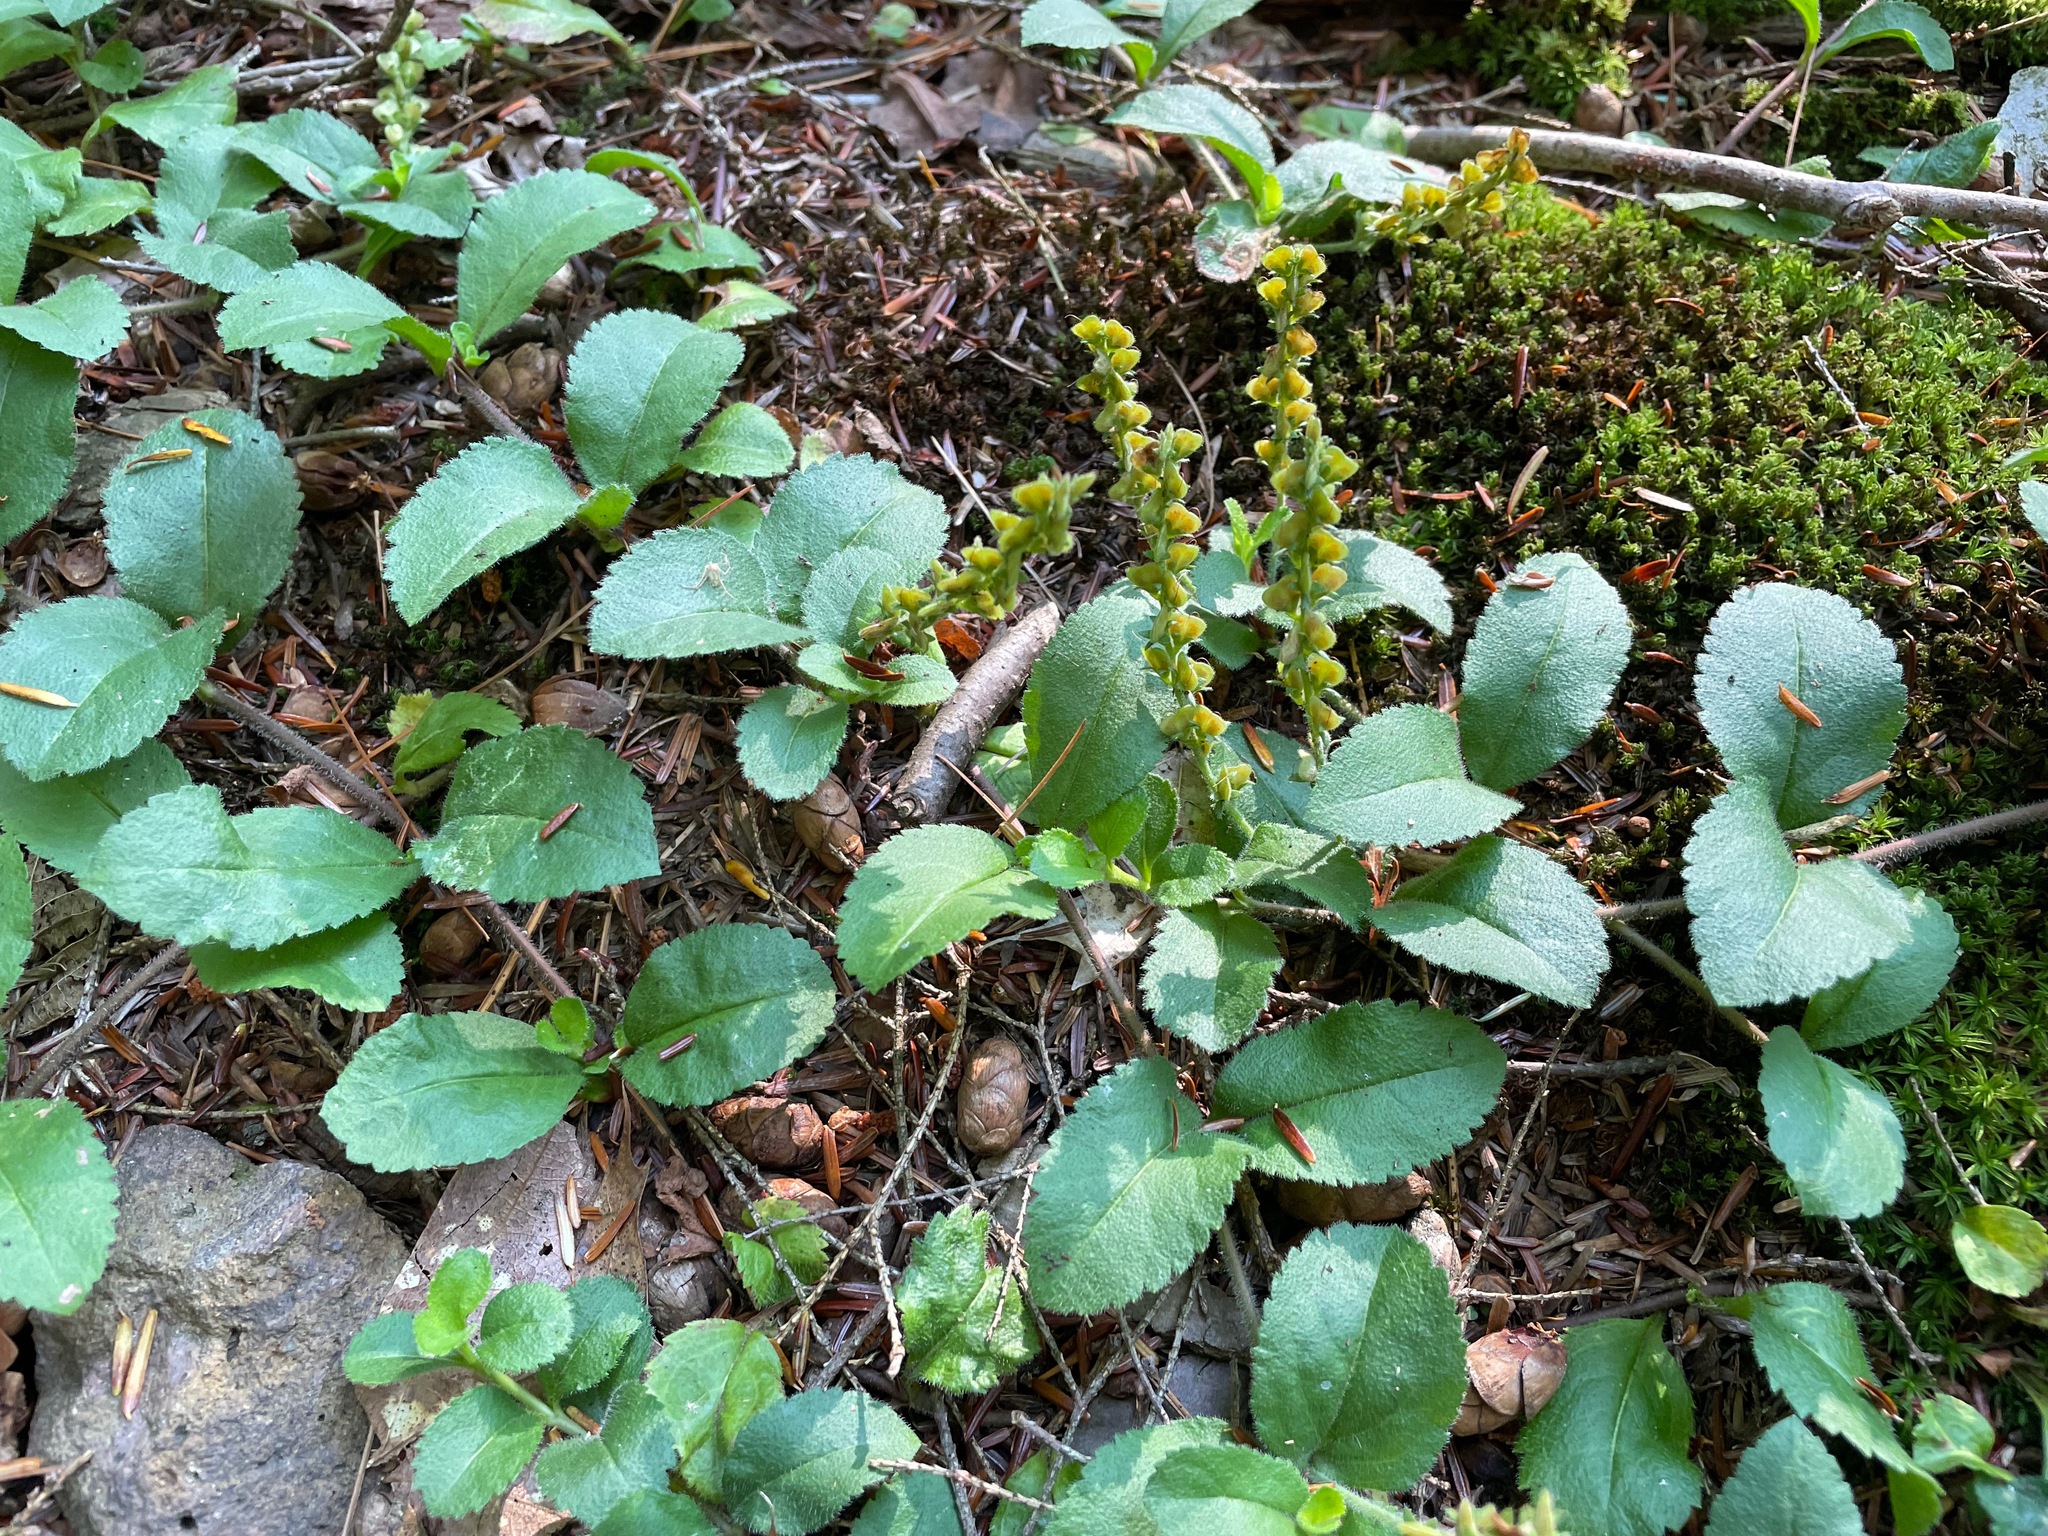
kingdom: Plantae
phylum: Tracheophyta
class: Magnoliopsida
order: Lamiales
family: Plantaginaceae
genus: Veronica
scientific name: Veronica officinalis
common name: Common speedwell
